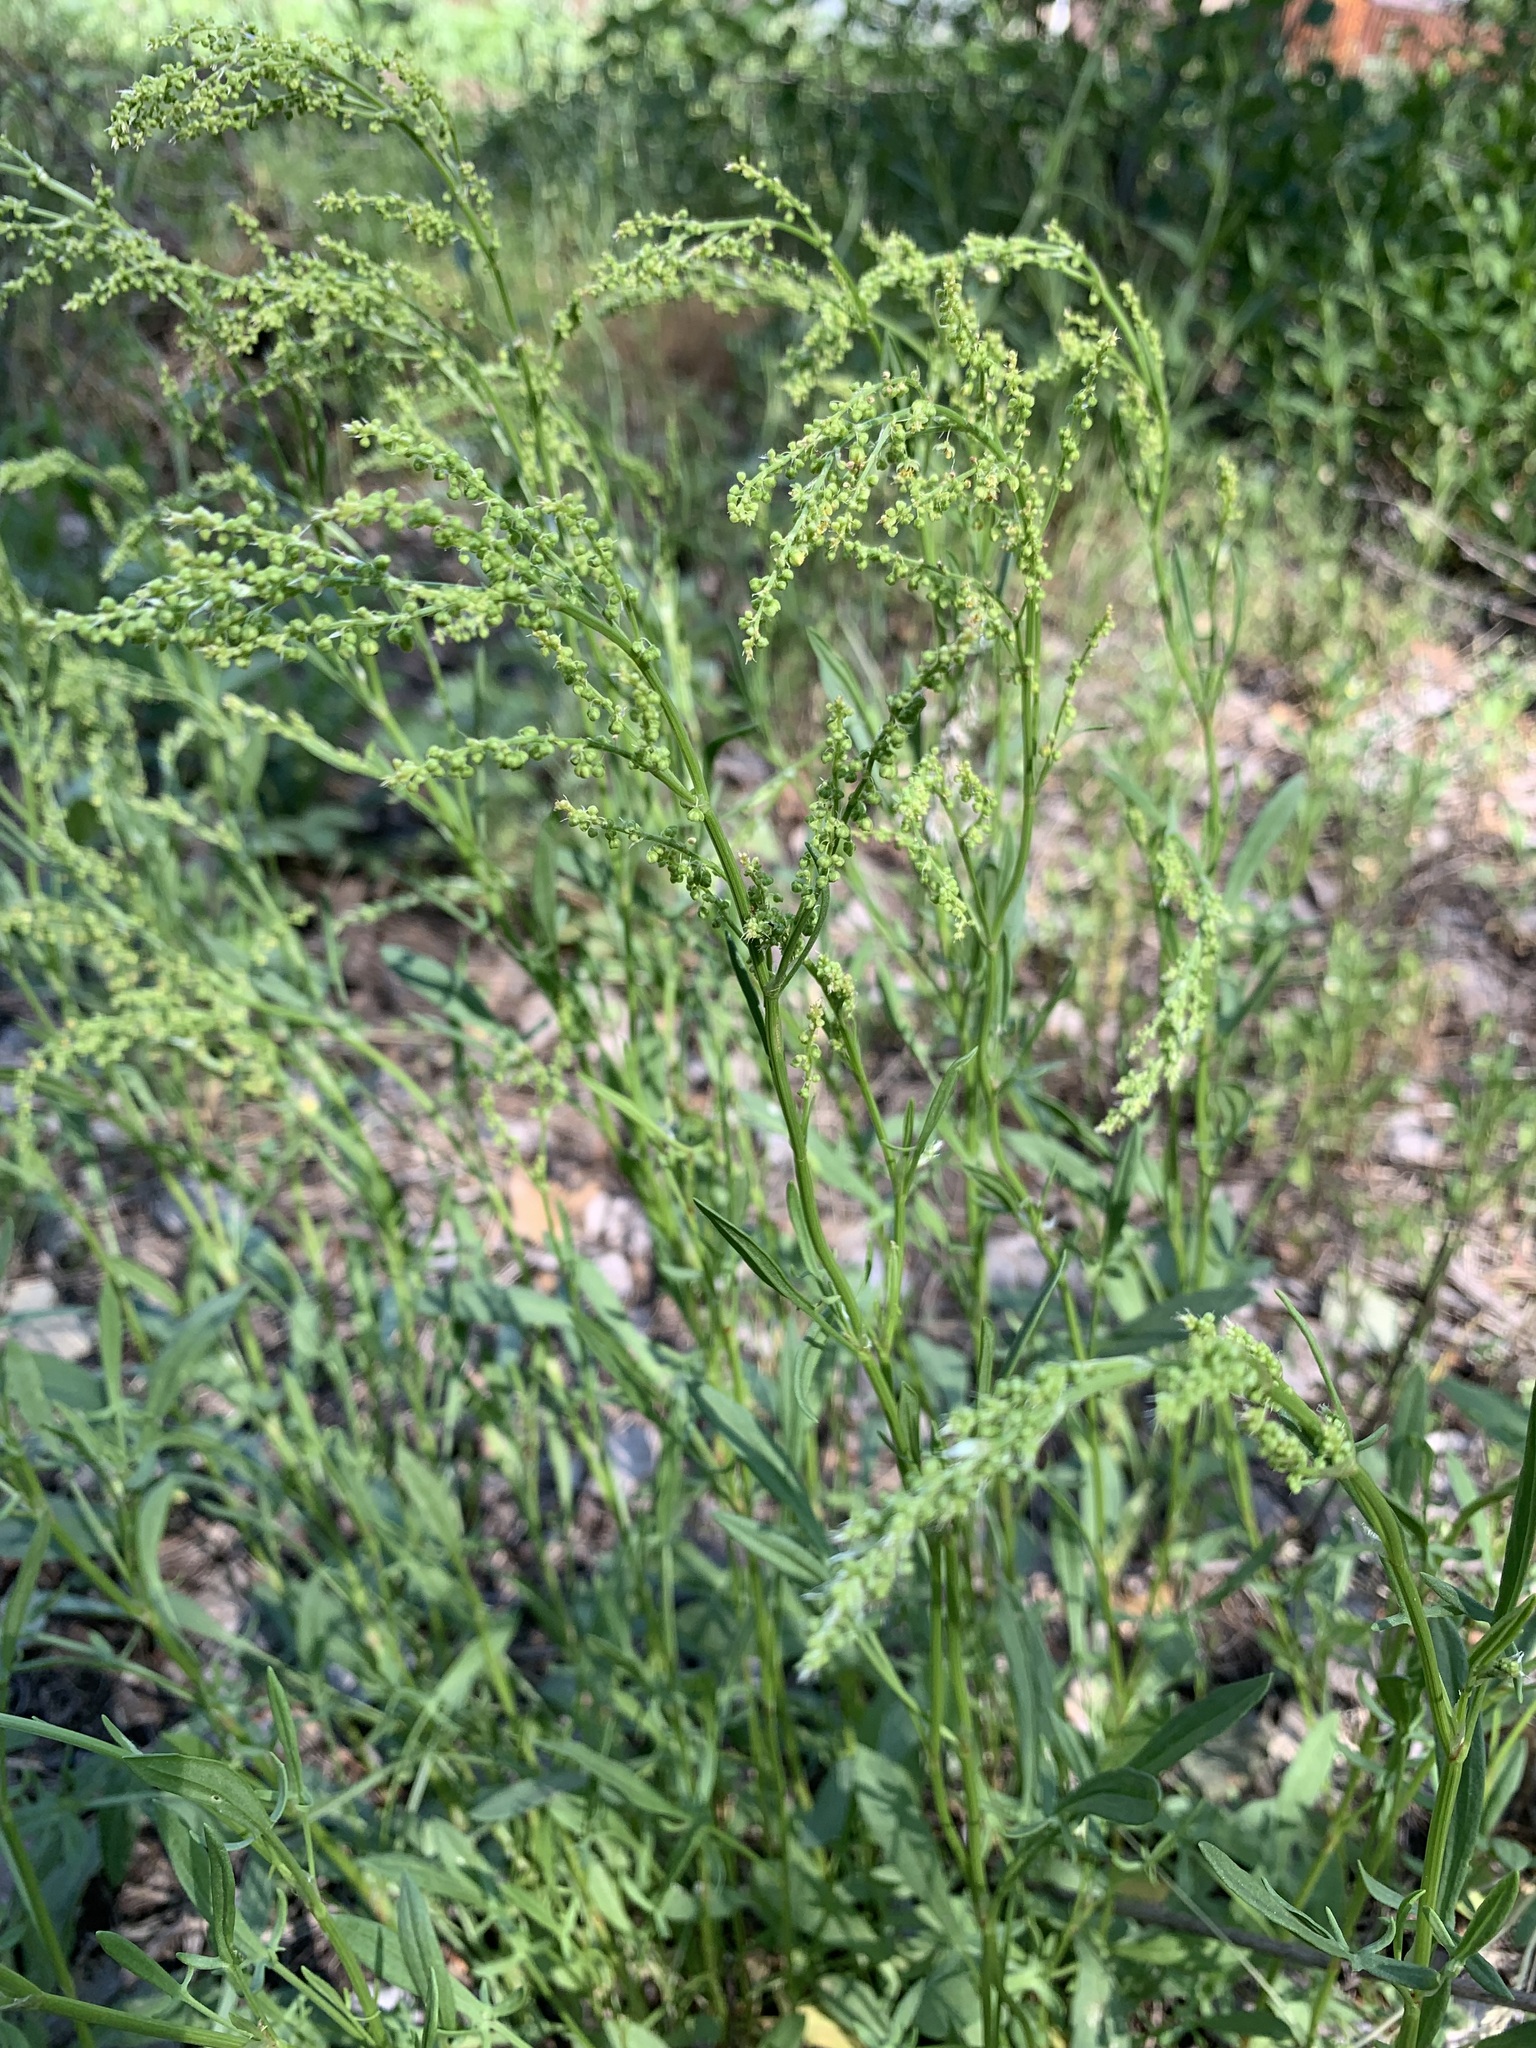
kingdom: Plantae
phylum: Tracheophyta
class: Magnoliopsida
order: Caryophyllales
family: Polygonaceae
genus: Rumex
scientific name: Rumex acetosella
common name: Common sheep sorrel
